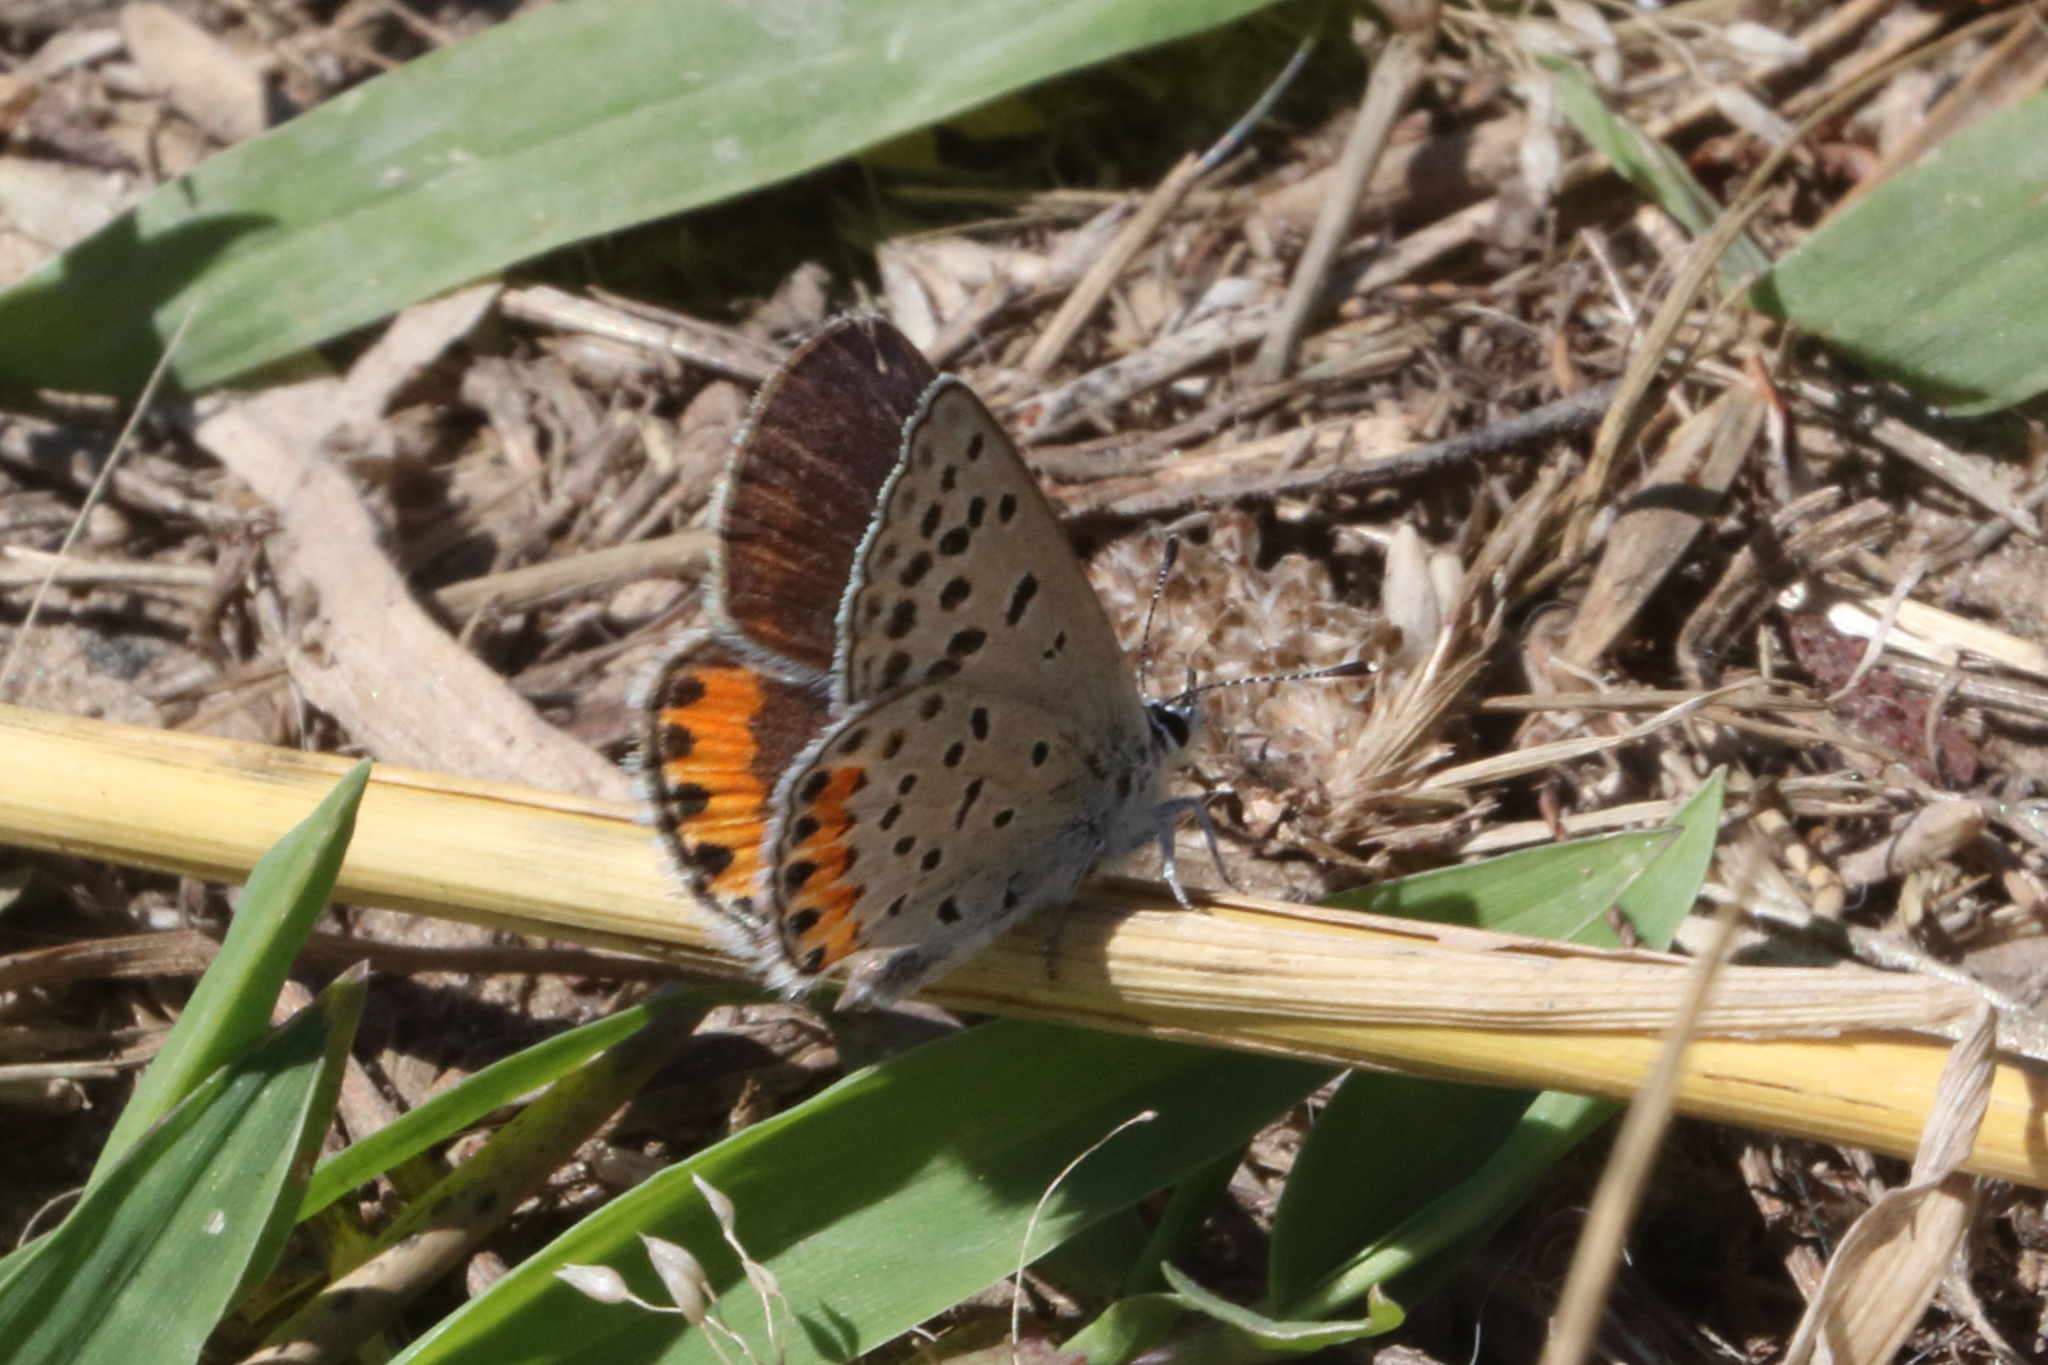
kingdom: Animalia
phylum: Arthropoda
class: Insecta
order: Lepidoptera
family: Lycaenidae
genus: Icaricia
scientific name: Icaricia acmon
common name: Acmon blue
